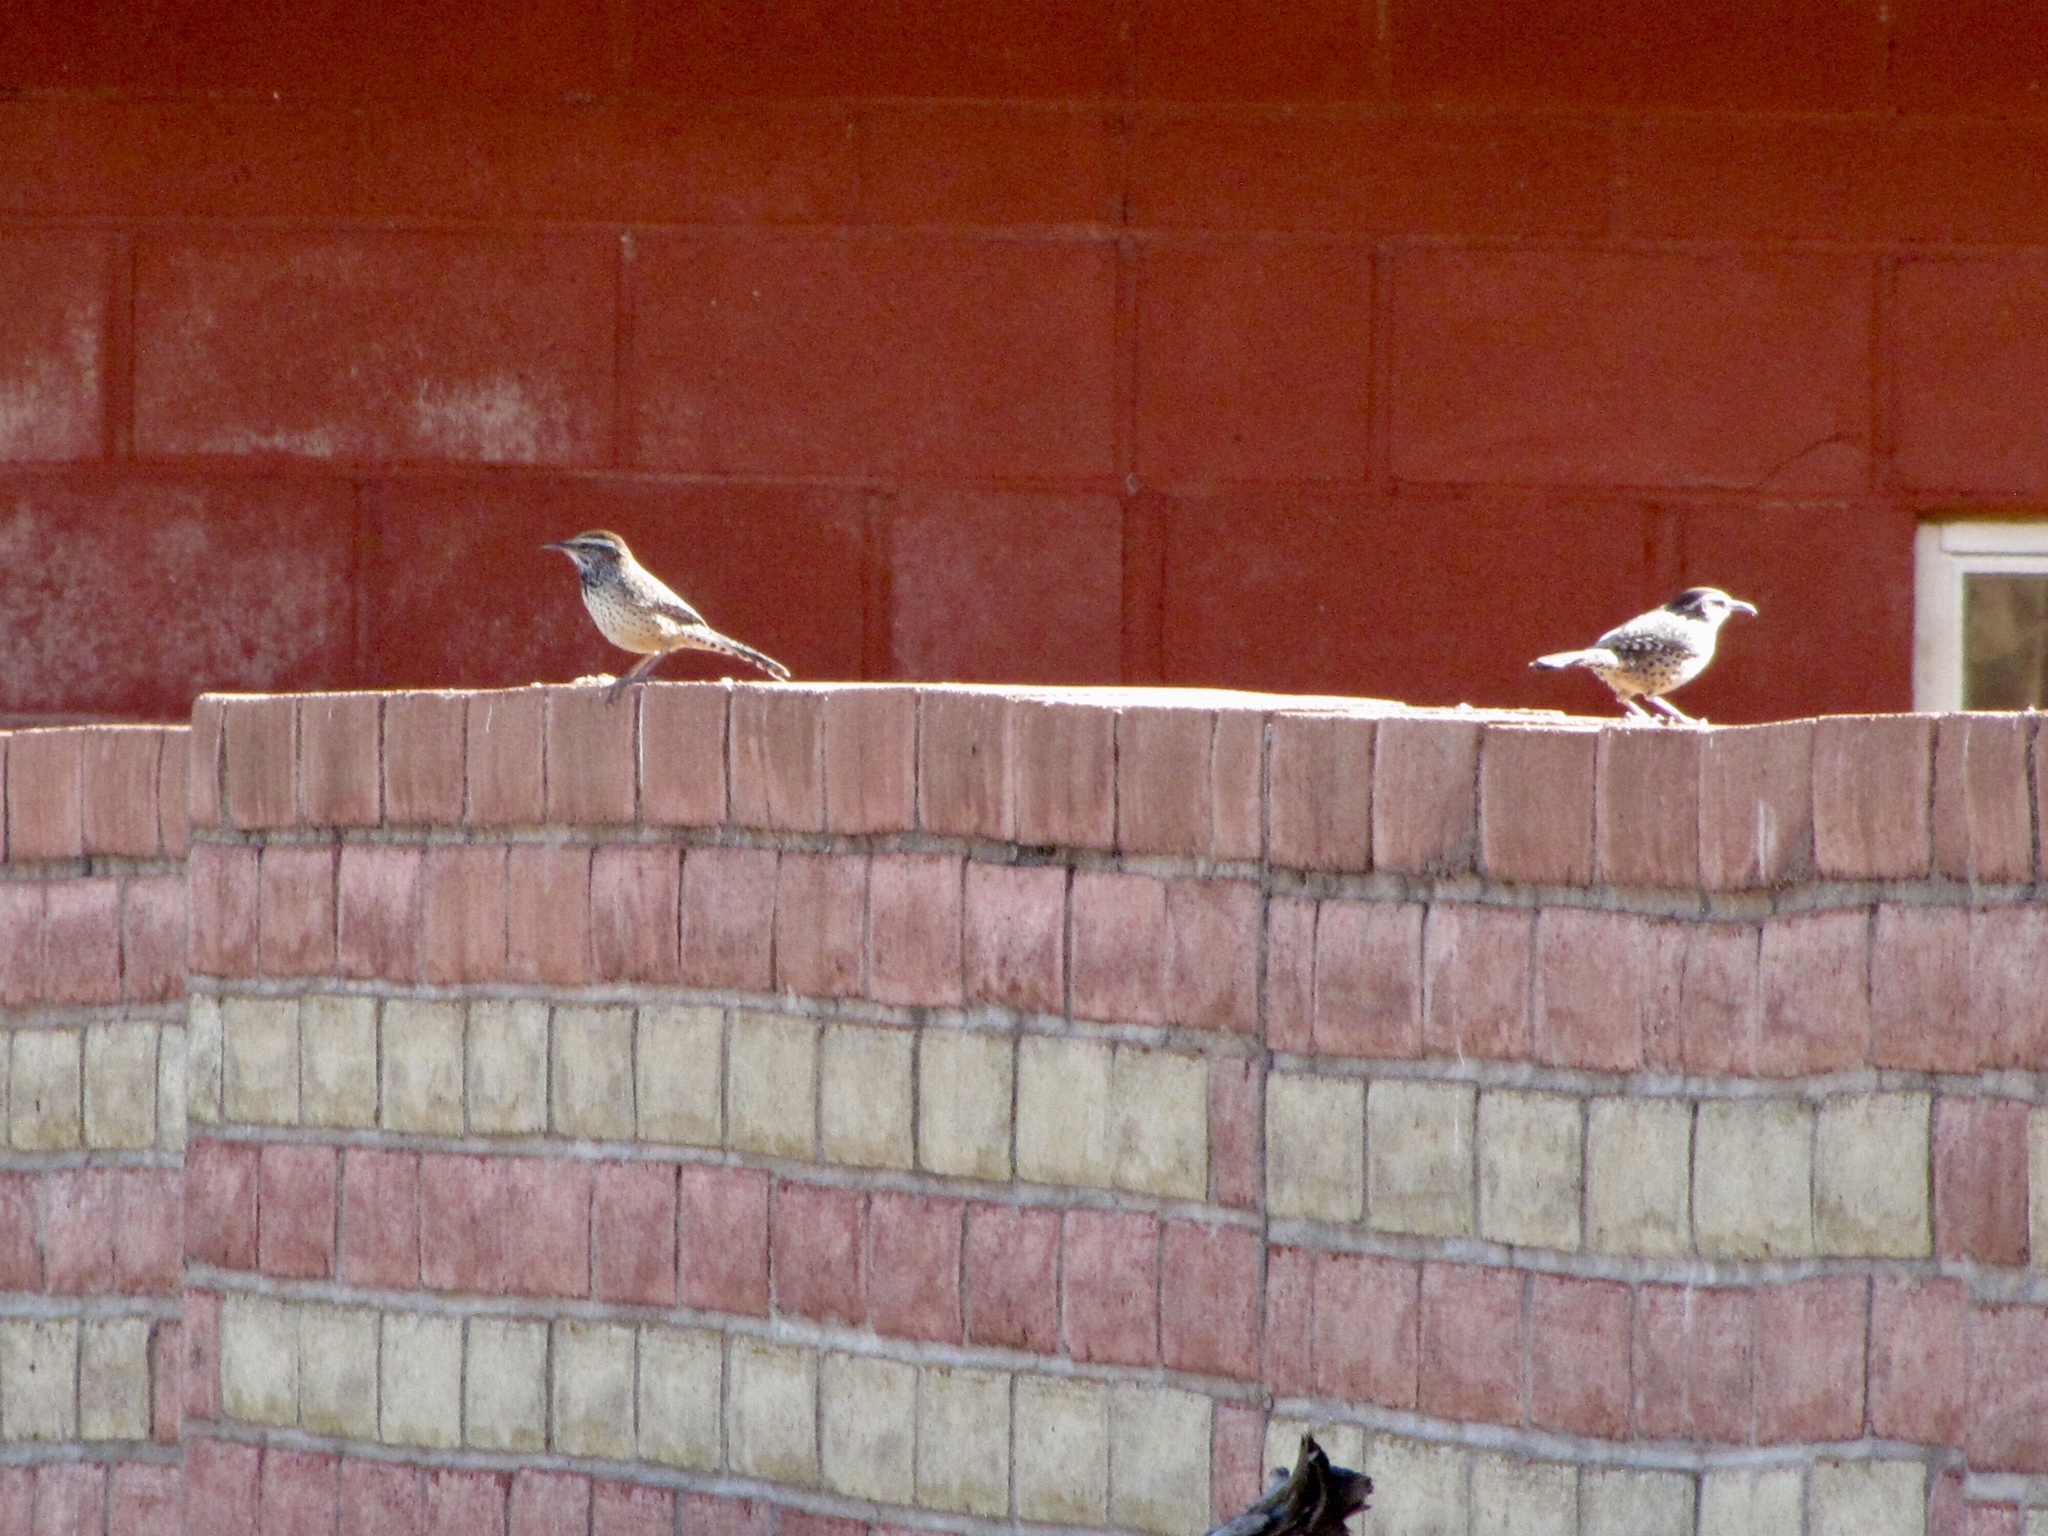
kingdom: Animalia
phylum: Chordata
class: Aves
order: Passeriformes
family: Troglodytidae
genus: Campylorhynchus
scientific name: Campylorhynchus brunneicapillus
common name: Cactus wren
